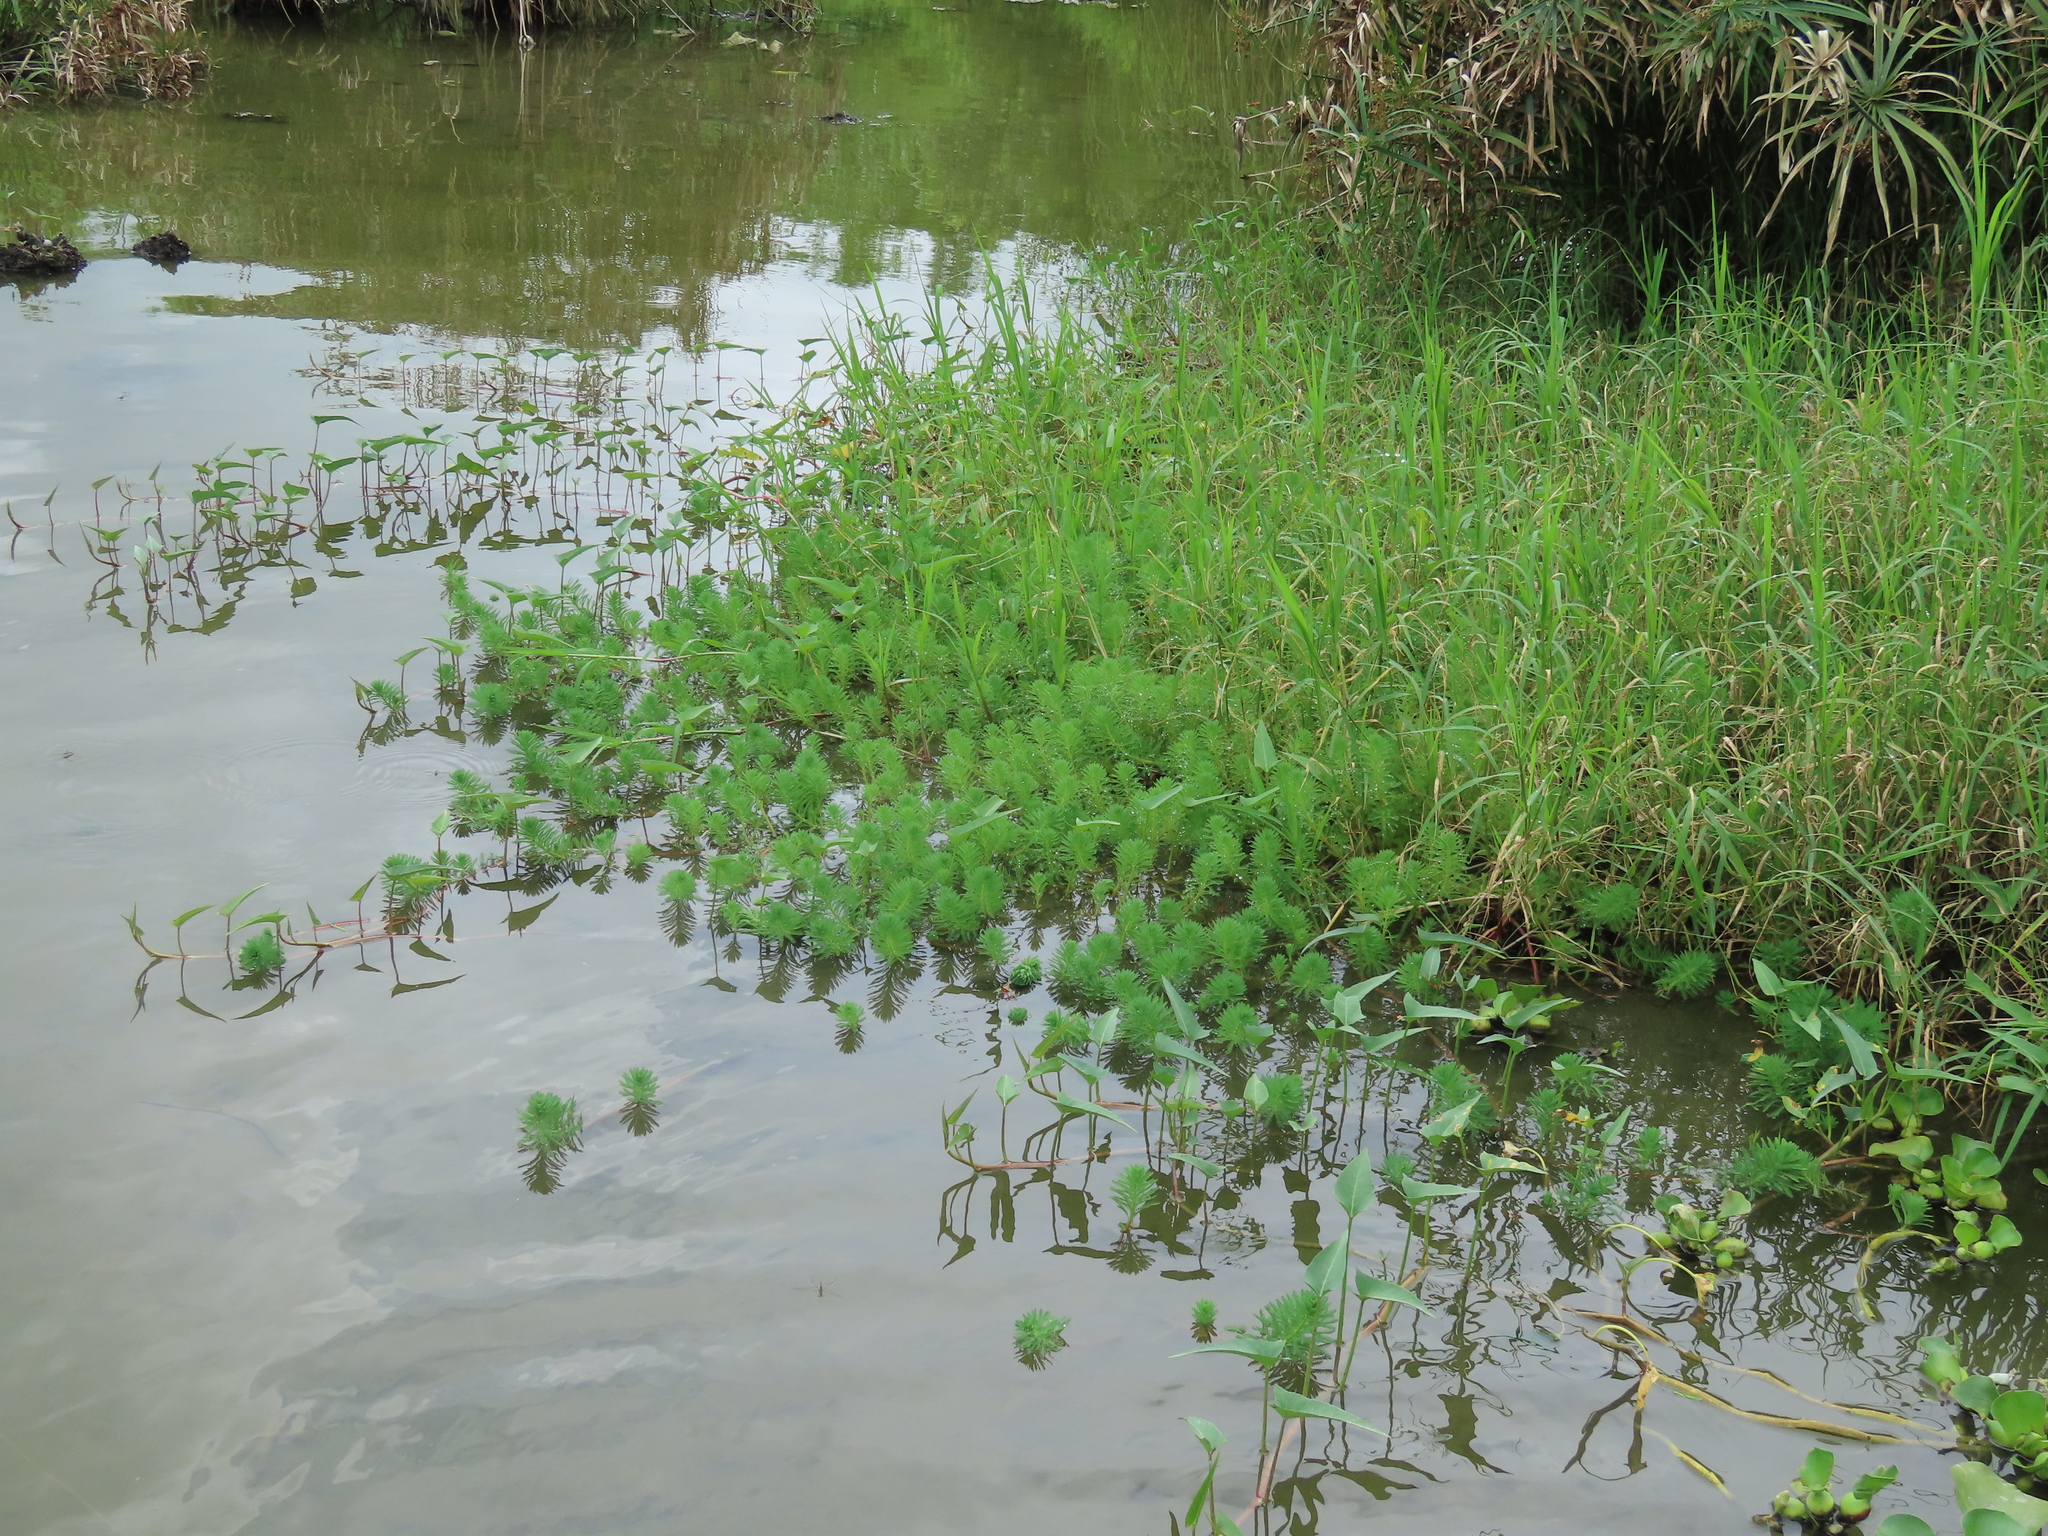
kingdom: Plantae
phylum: Tracheophyta
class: Magnoliopsida
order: Saxifragales
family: Haloragaceae
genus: Myriophyllum
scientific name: Myriophyllum aquaticum
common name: Parrot's feather
